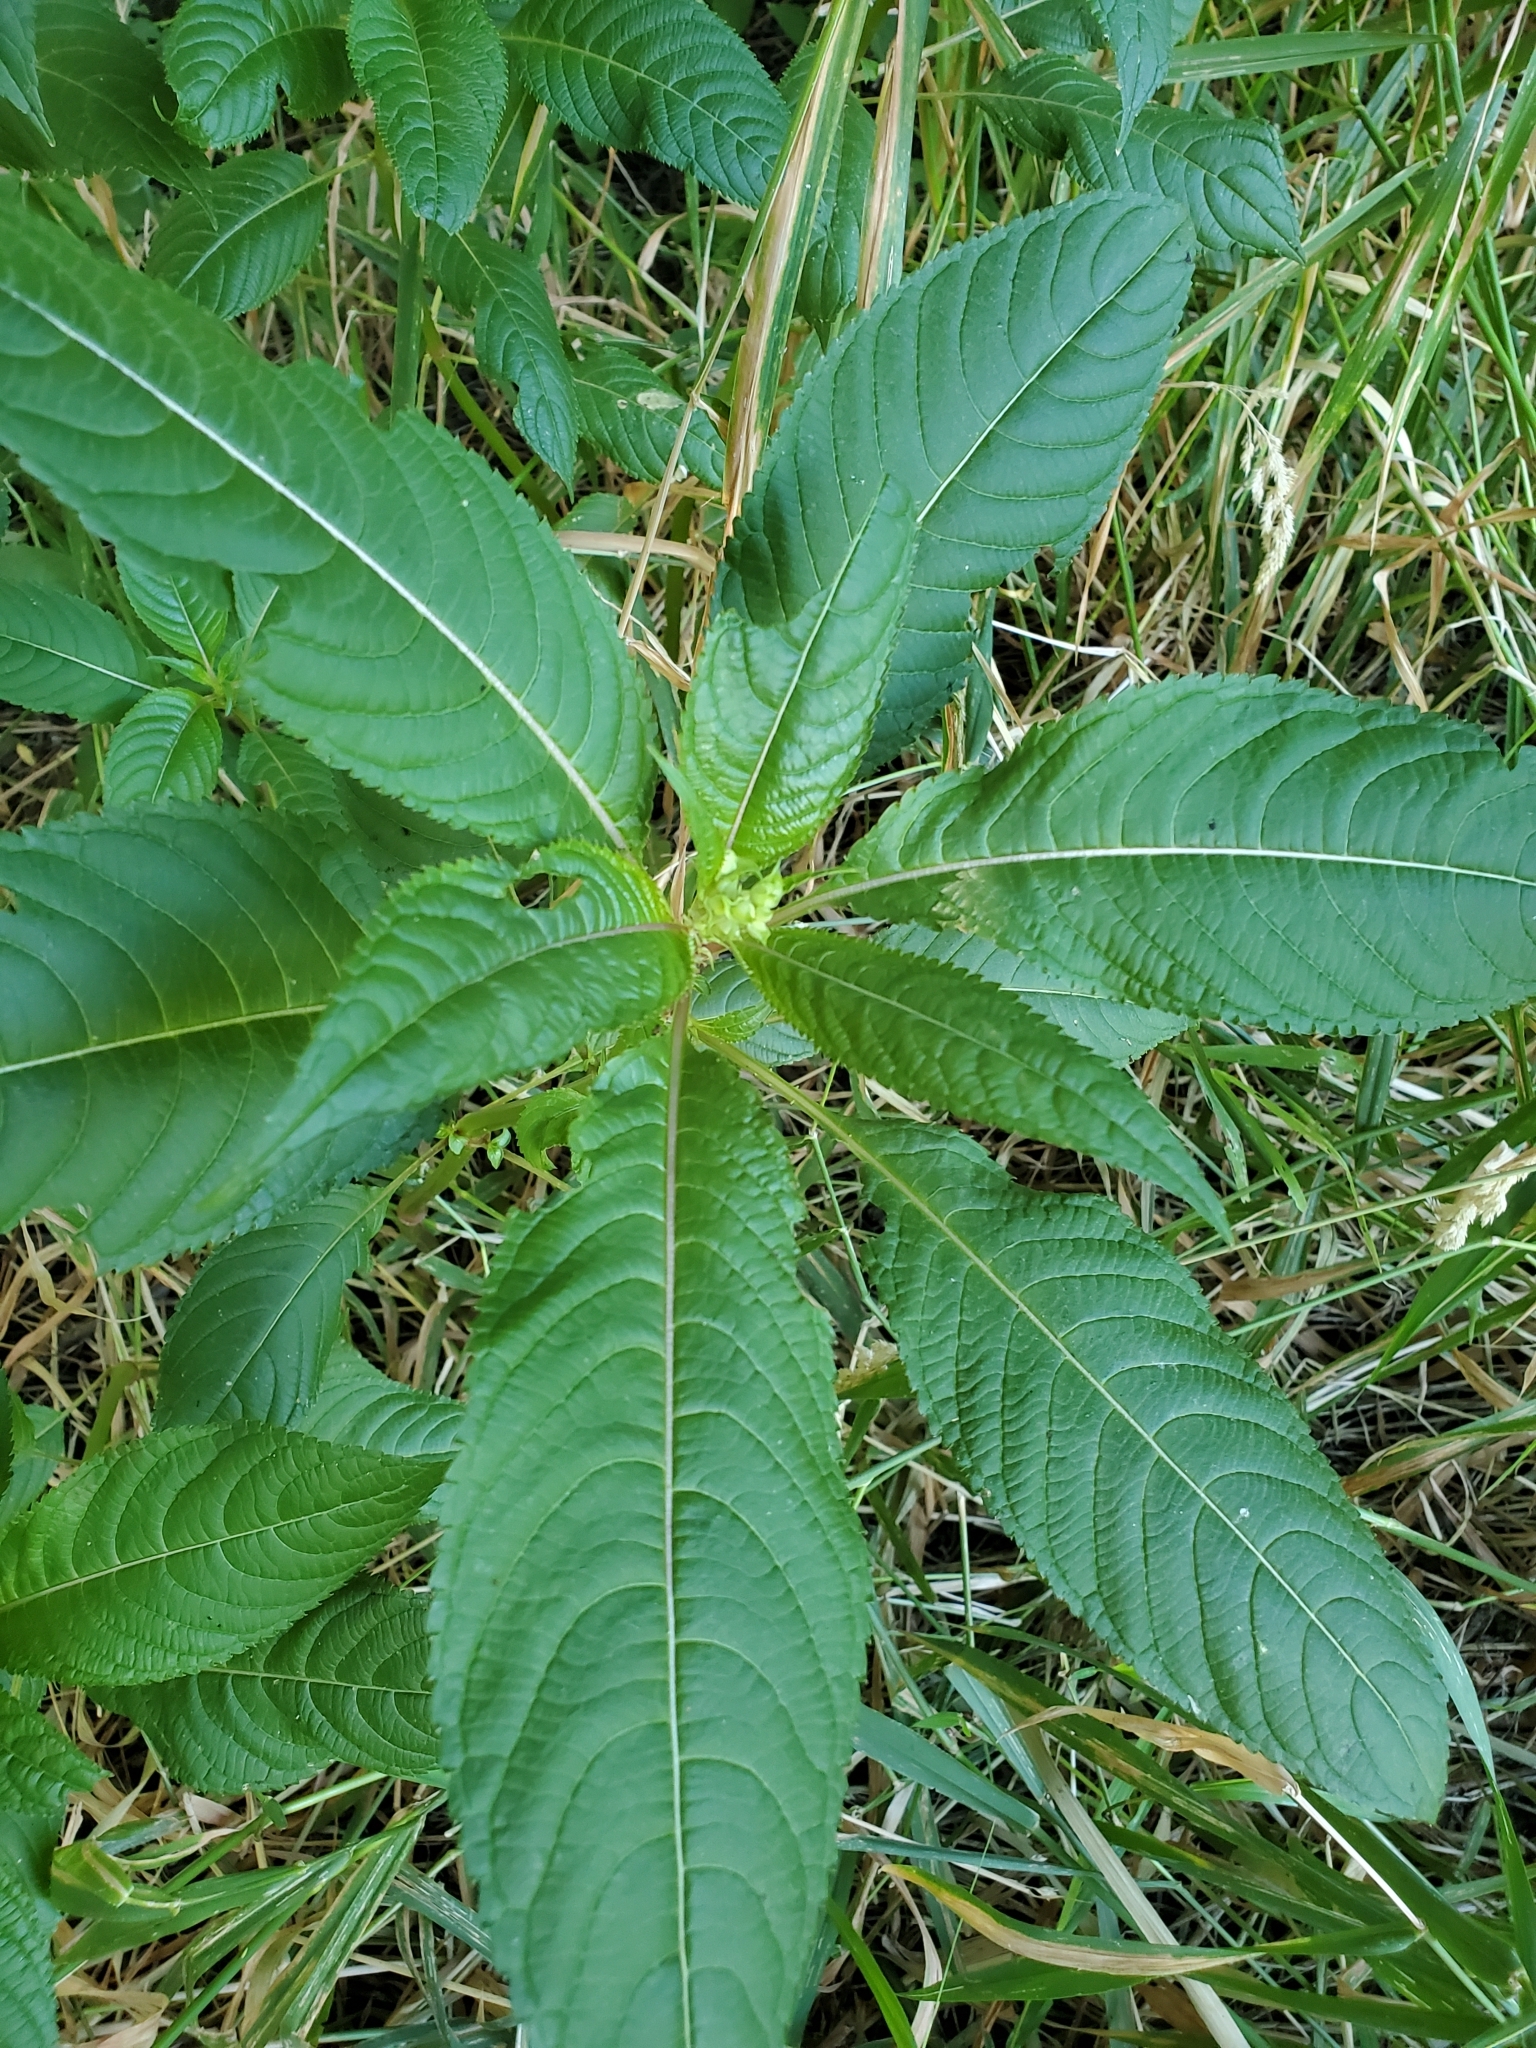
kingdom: Plantae
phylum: Tracheophyta
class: Magnoliopsida
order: Ericales
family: Balsaminaceae
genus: Impatiens
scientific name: Impatiens glandulifera
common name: Himalayan balsam
